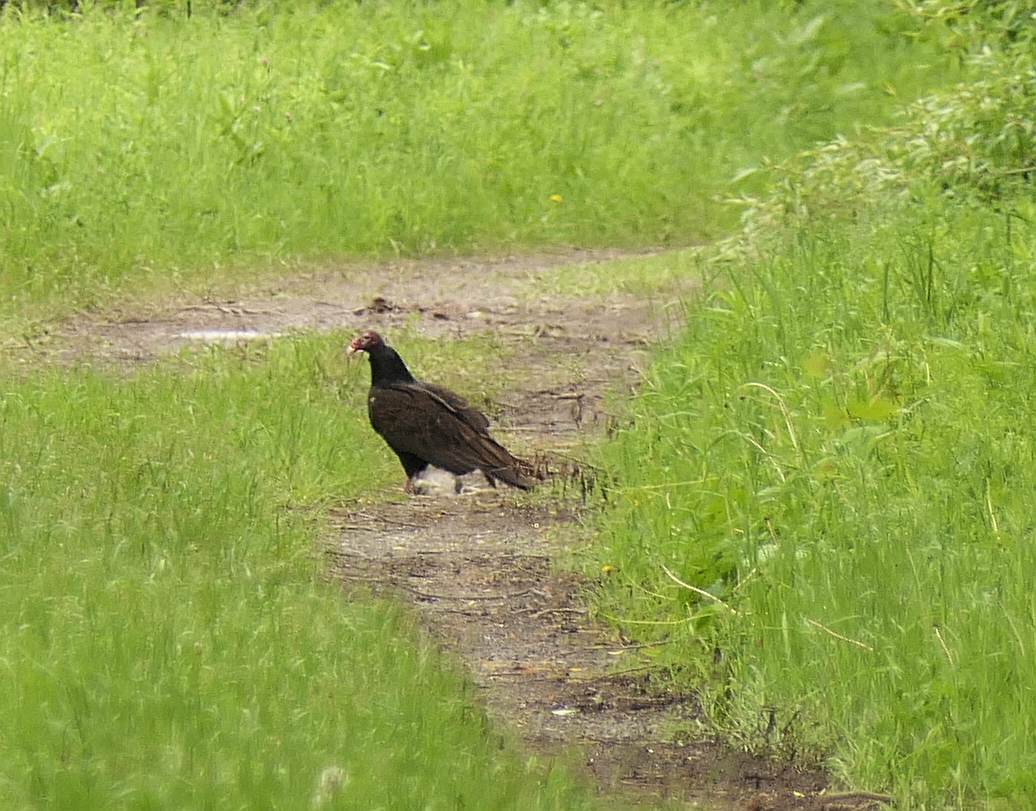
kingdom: Animalia
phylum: Chordata
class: Aves
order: Accipitriformes
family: Cathartidae
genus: Cathartes
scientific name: Cathartes aura
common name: Turkey vulture
